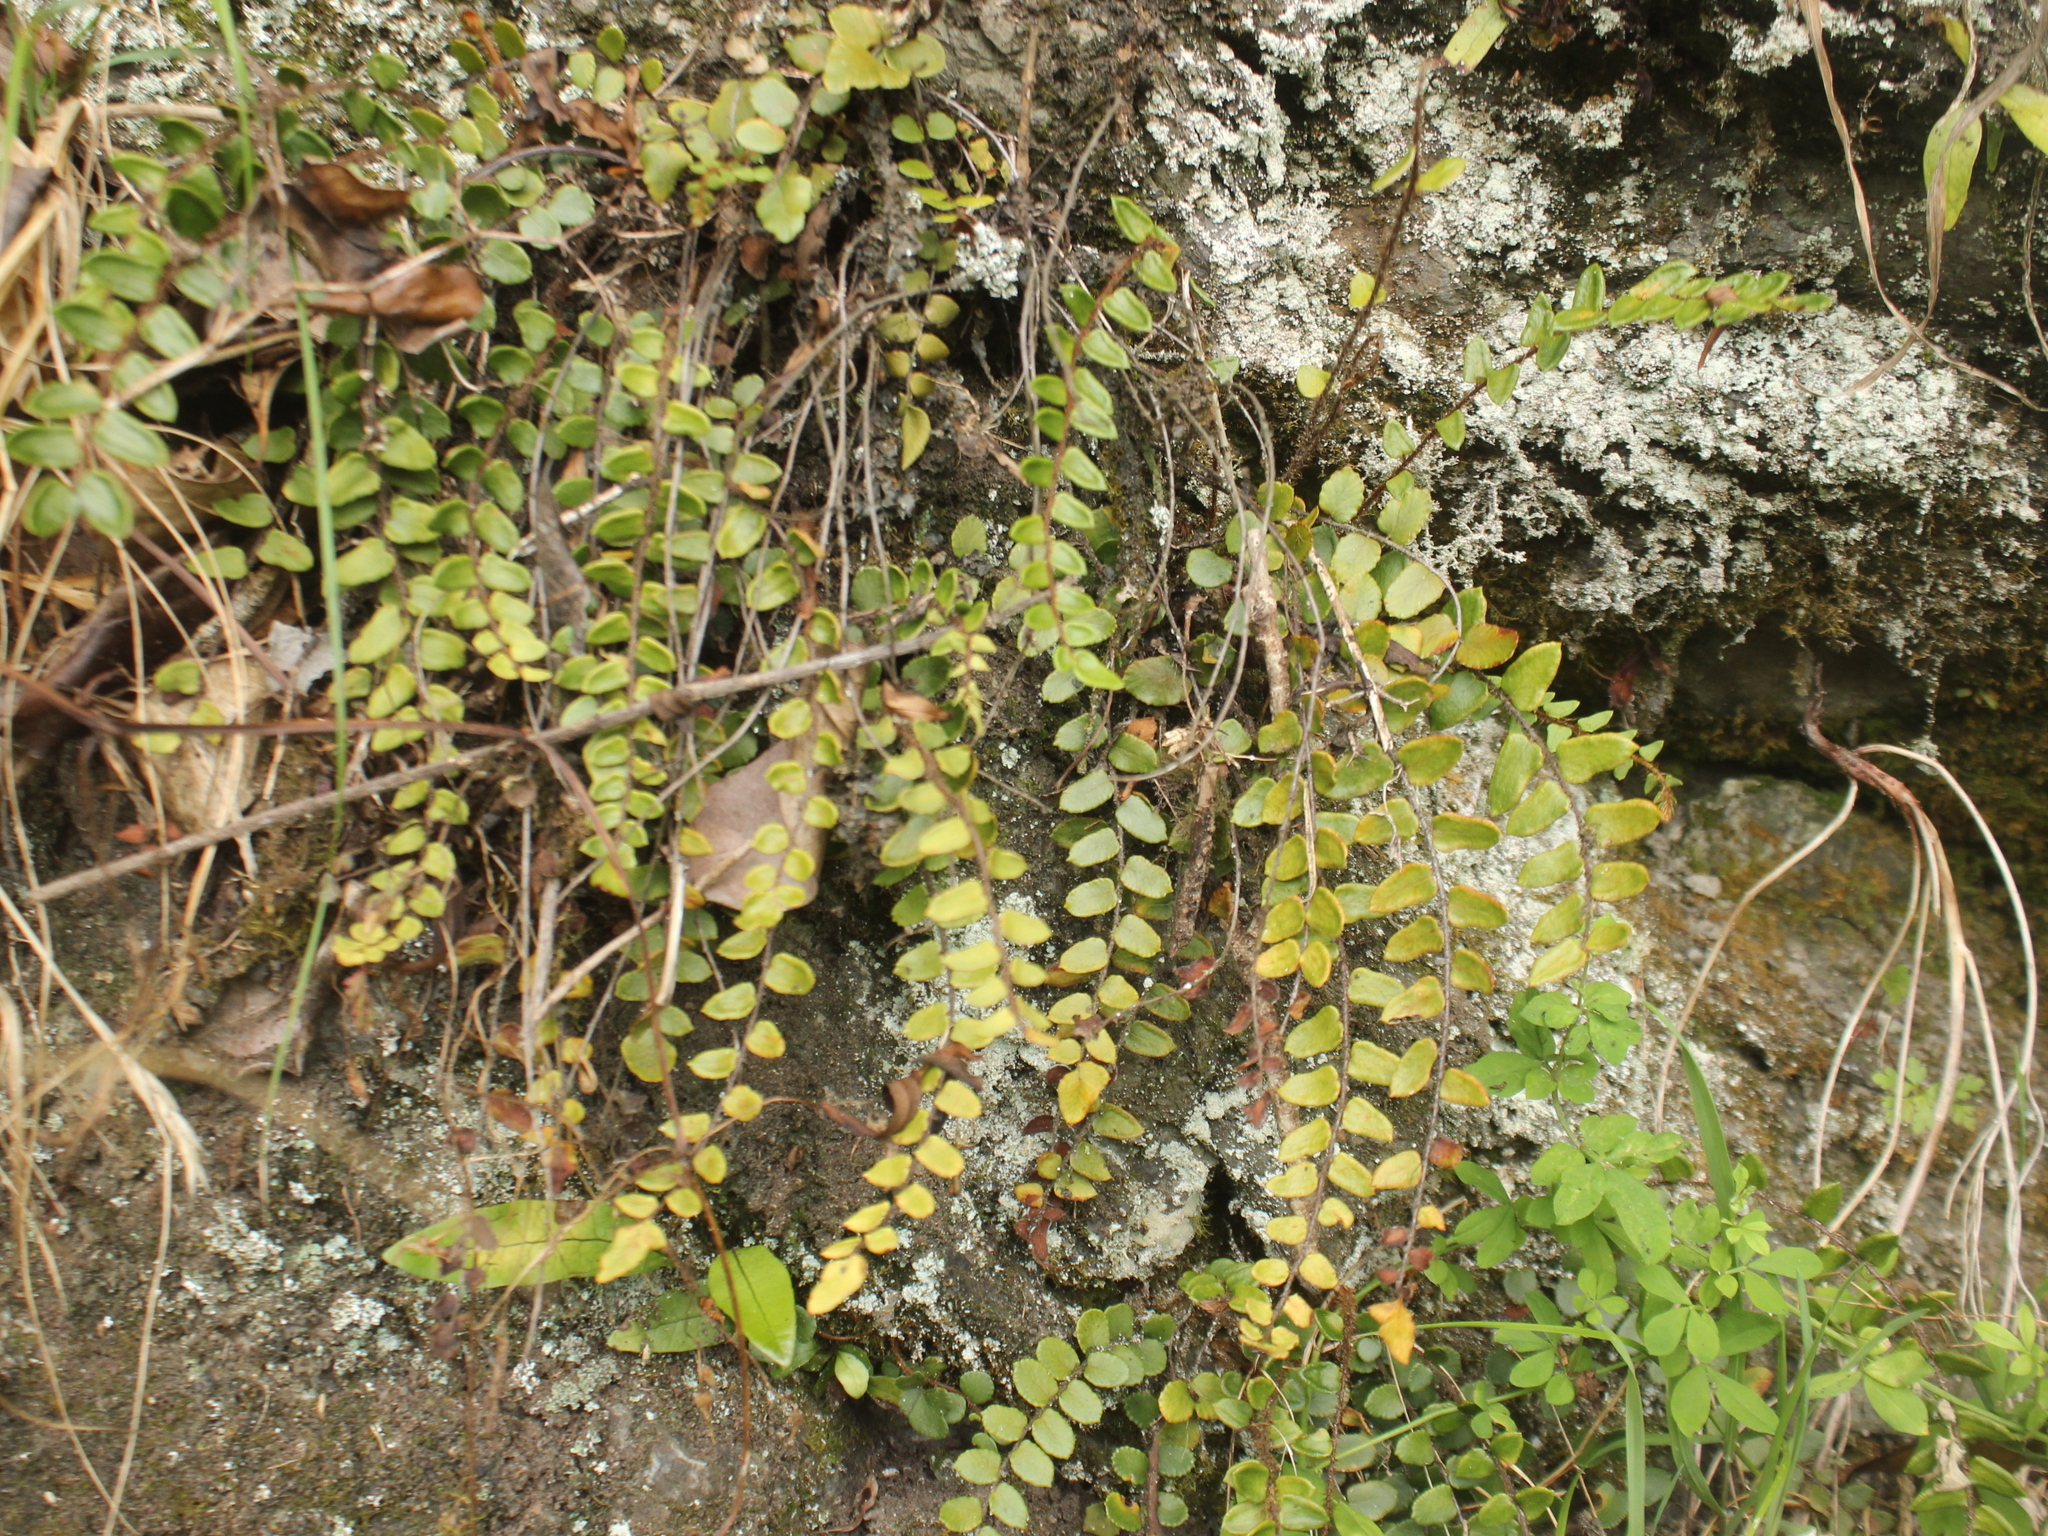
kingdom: Plantae
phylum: Tracheophyta
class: Polypodiopsida
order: Polypodiales
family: Pteridaceae
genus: Pellaea
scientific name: Pellaea rotundifolia
